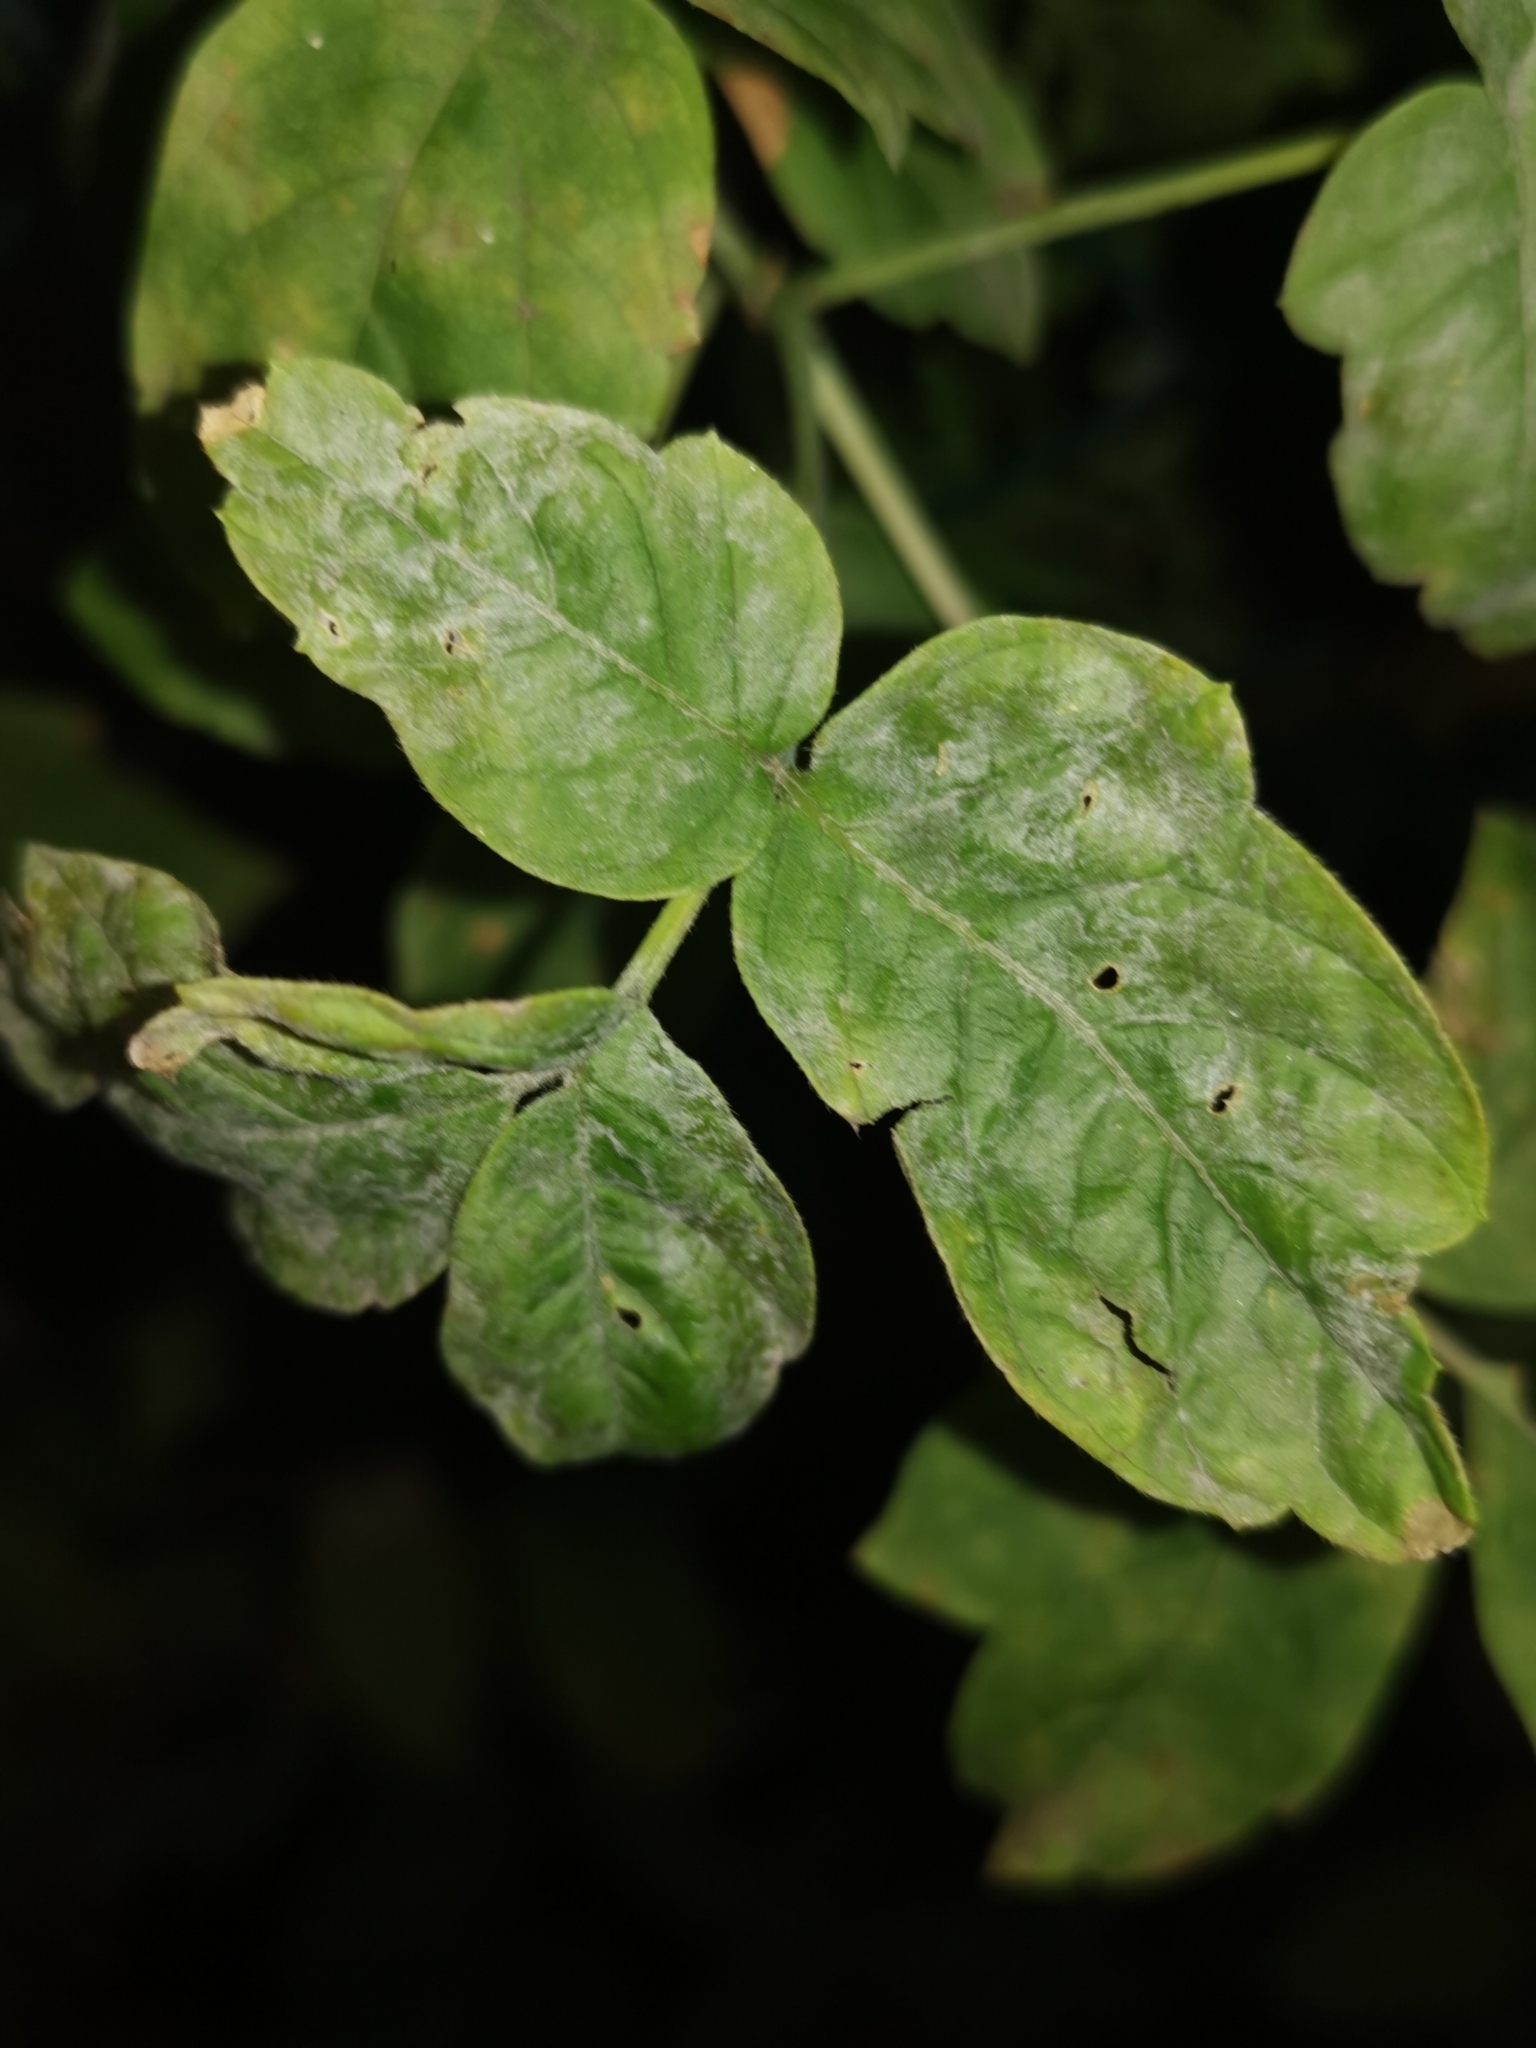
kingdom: Fungi
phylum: Ascomycota
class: Leotiomycetes
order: Helotiales
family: Erysiphaceae
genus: Sawadaea
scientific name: Sawadaea bicornis
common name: Maple mildew
